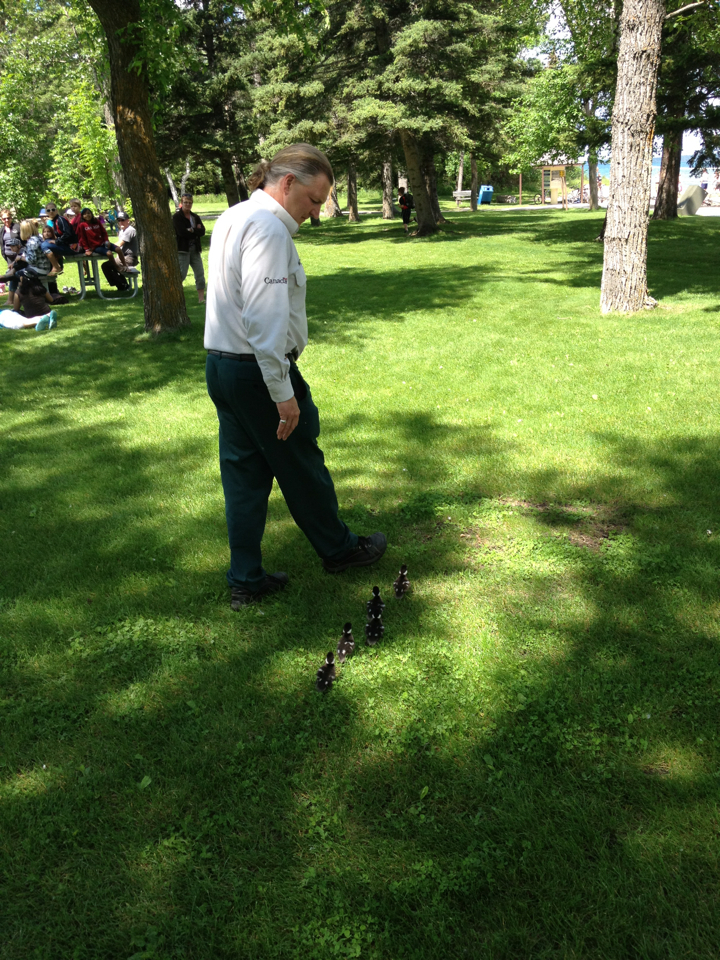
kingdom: Animalia
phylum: Chordata
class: Aves
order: Anseriformes
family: Anatidae
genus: Bucephala
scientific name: Bucephala clangula
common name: Common goldeneye
